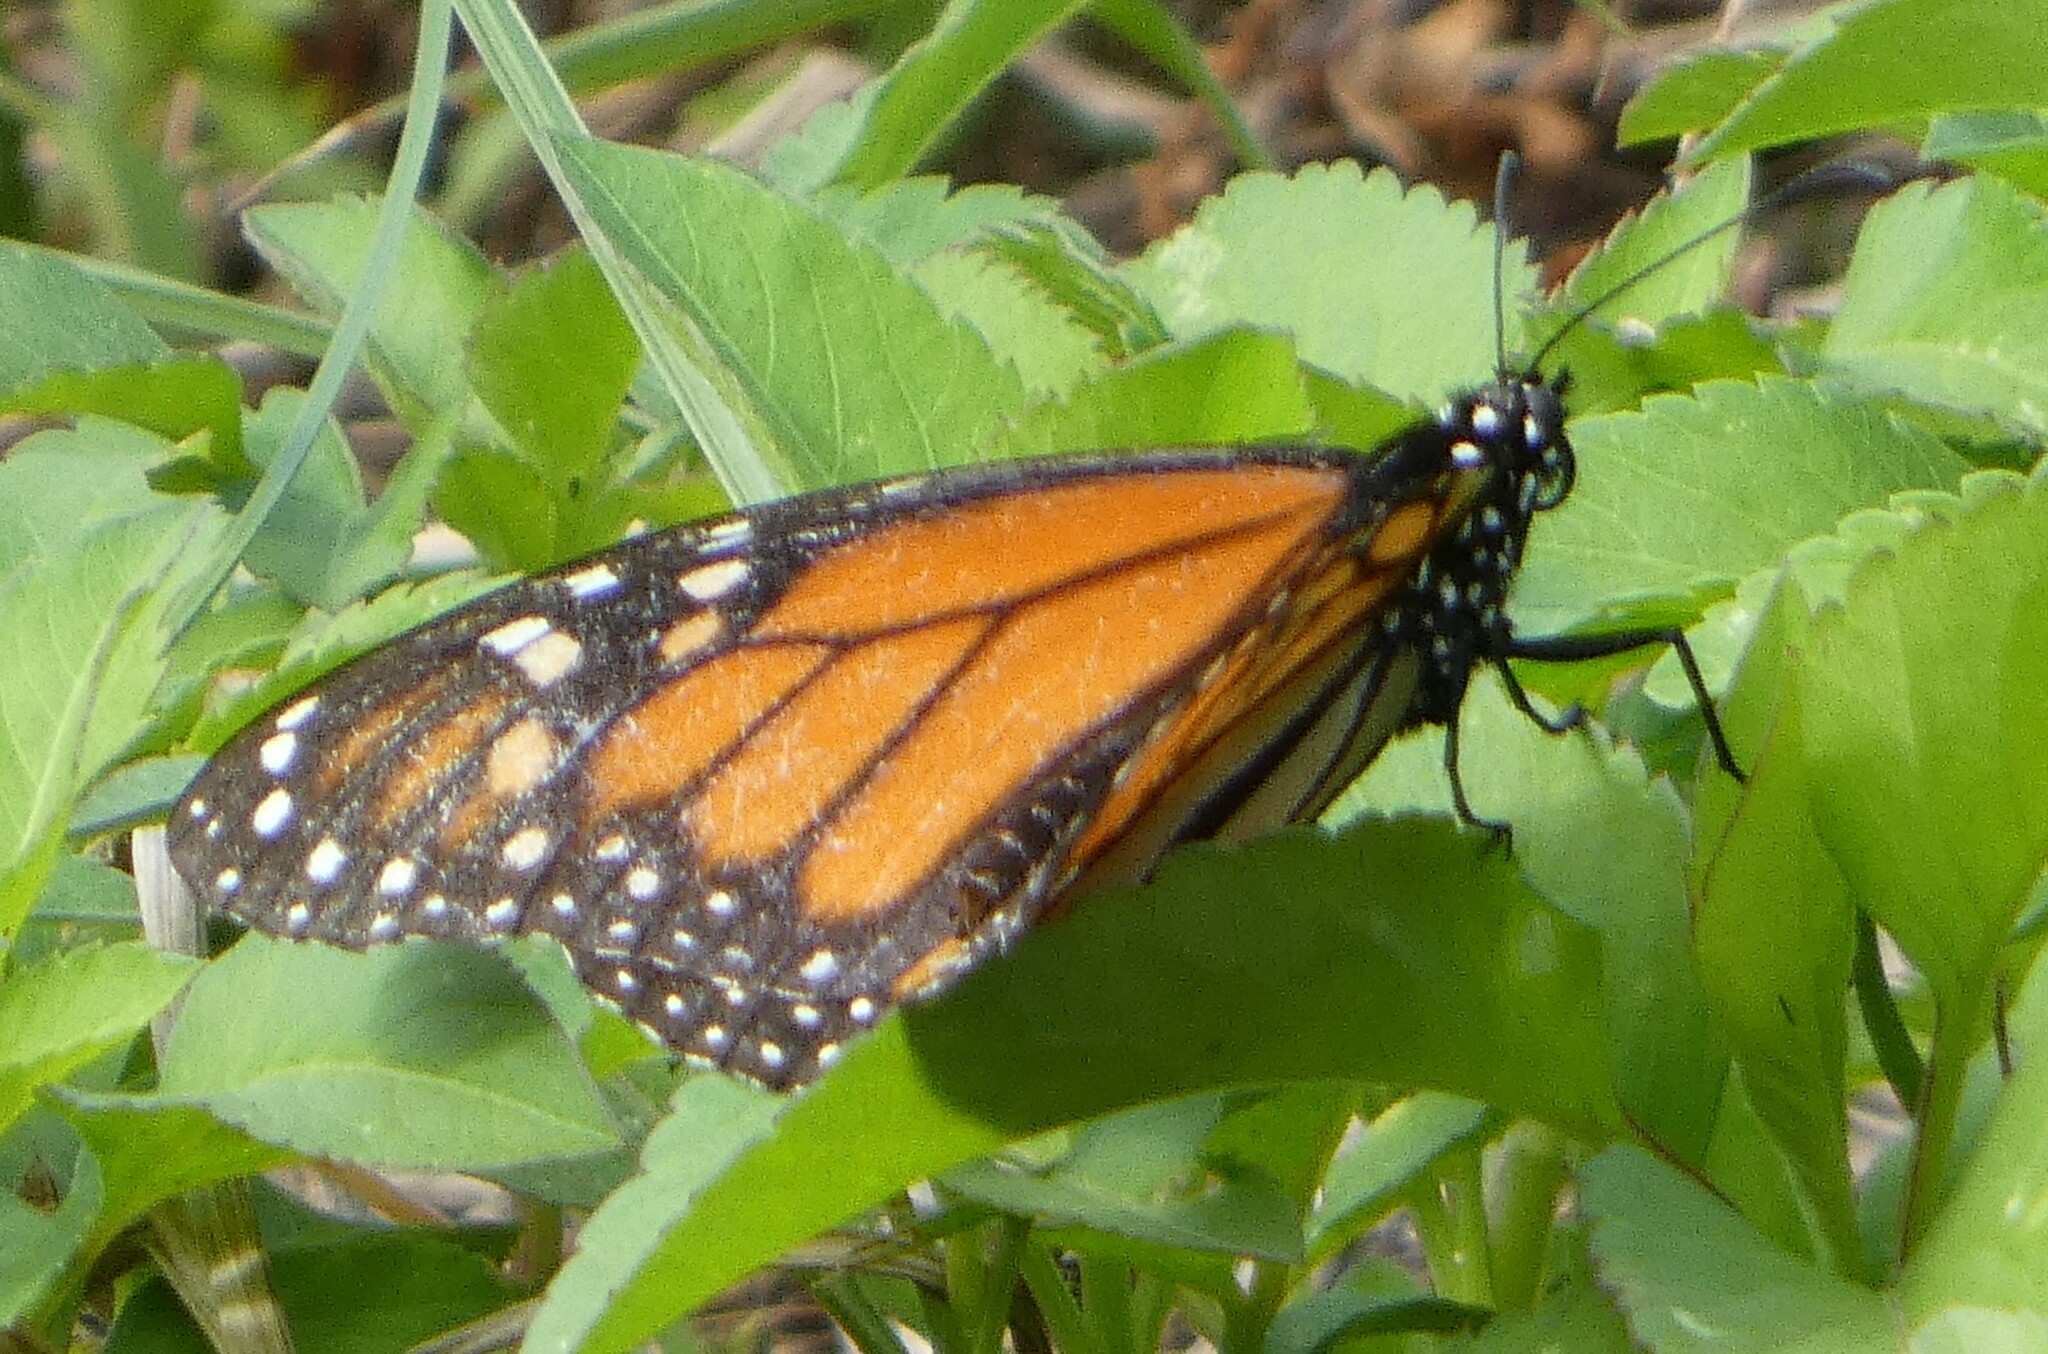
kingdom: Animalia
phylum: Arthropoda
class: Insecta
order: Lepidoptera
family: Nymphalidae
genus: Danaus
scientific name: Danaus plexippus
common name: Monarch
